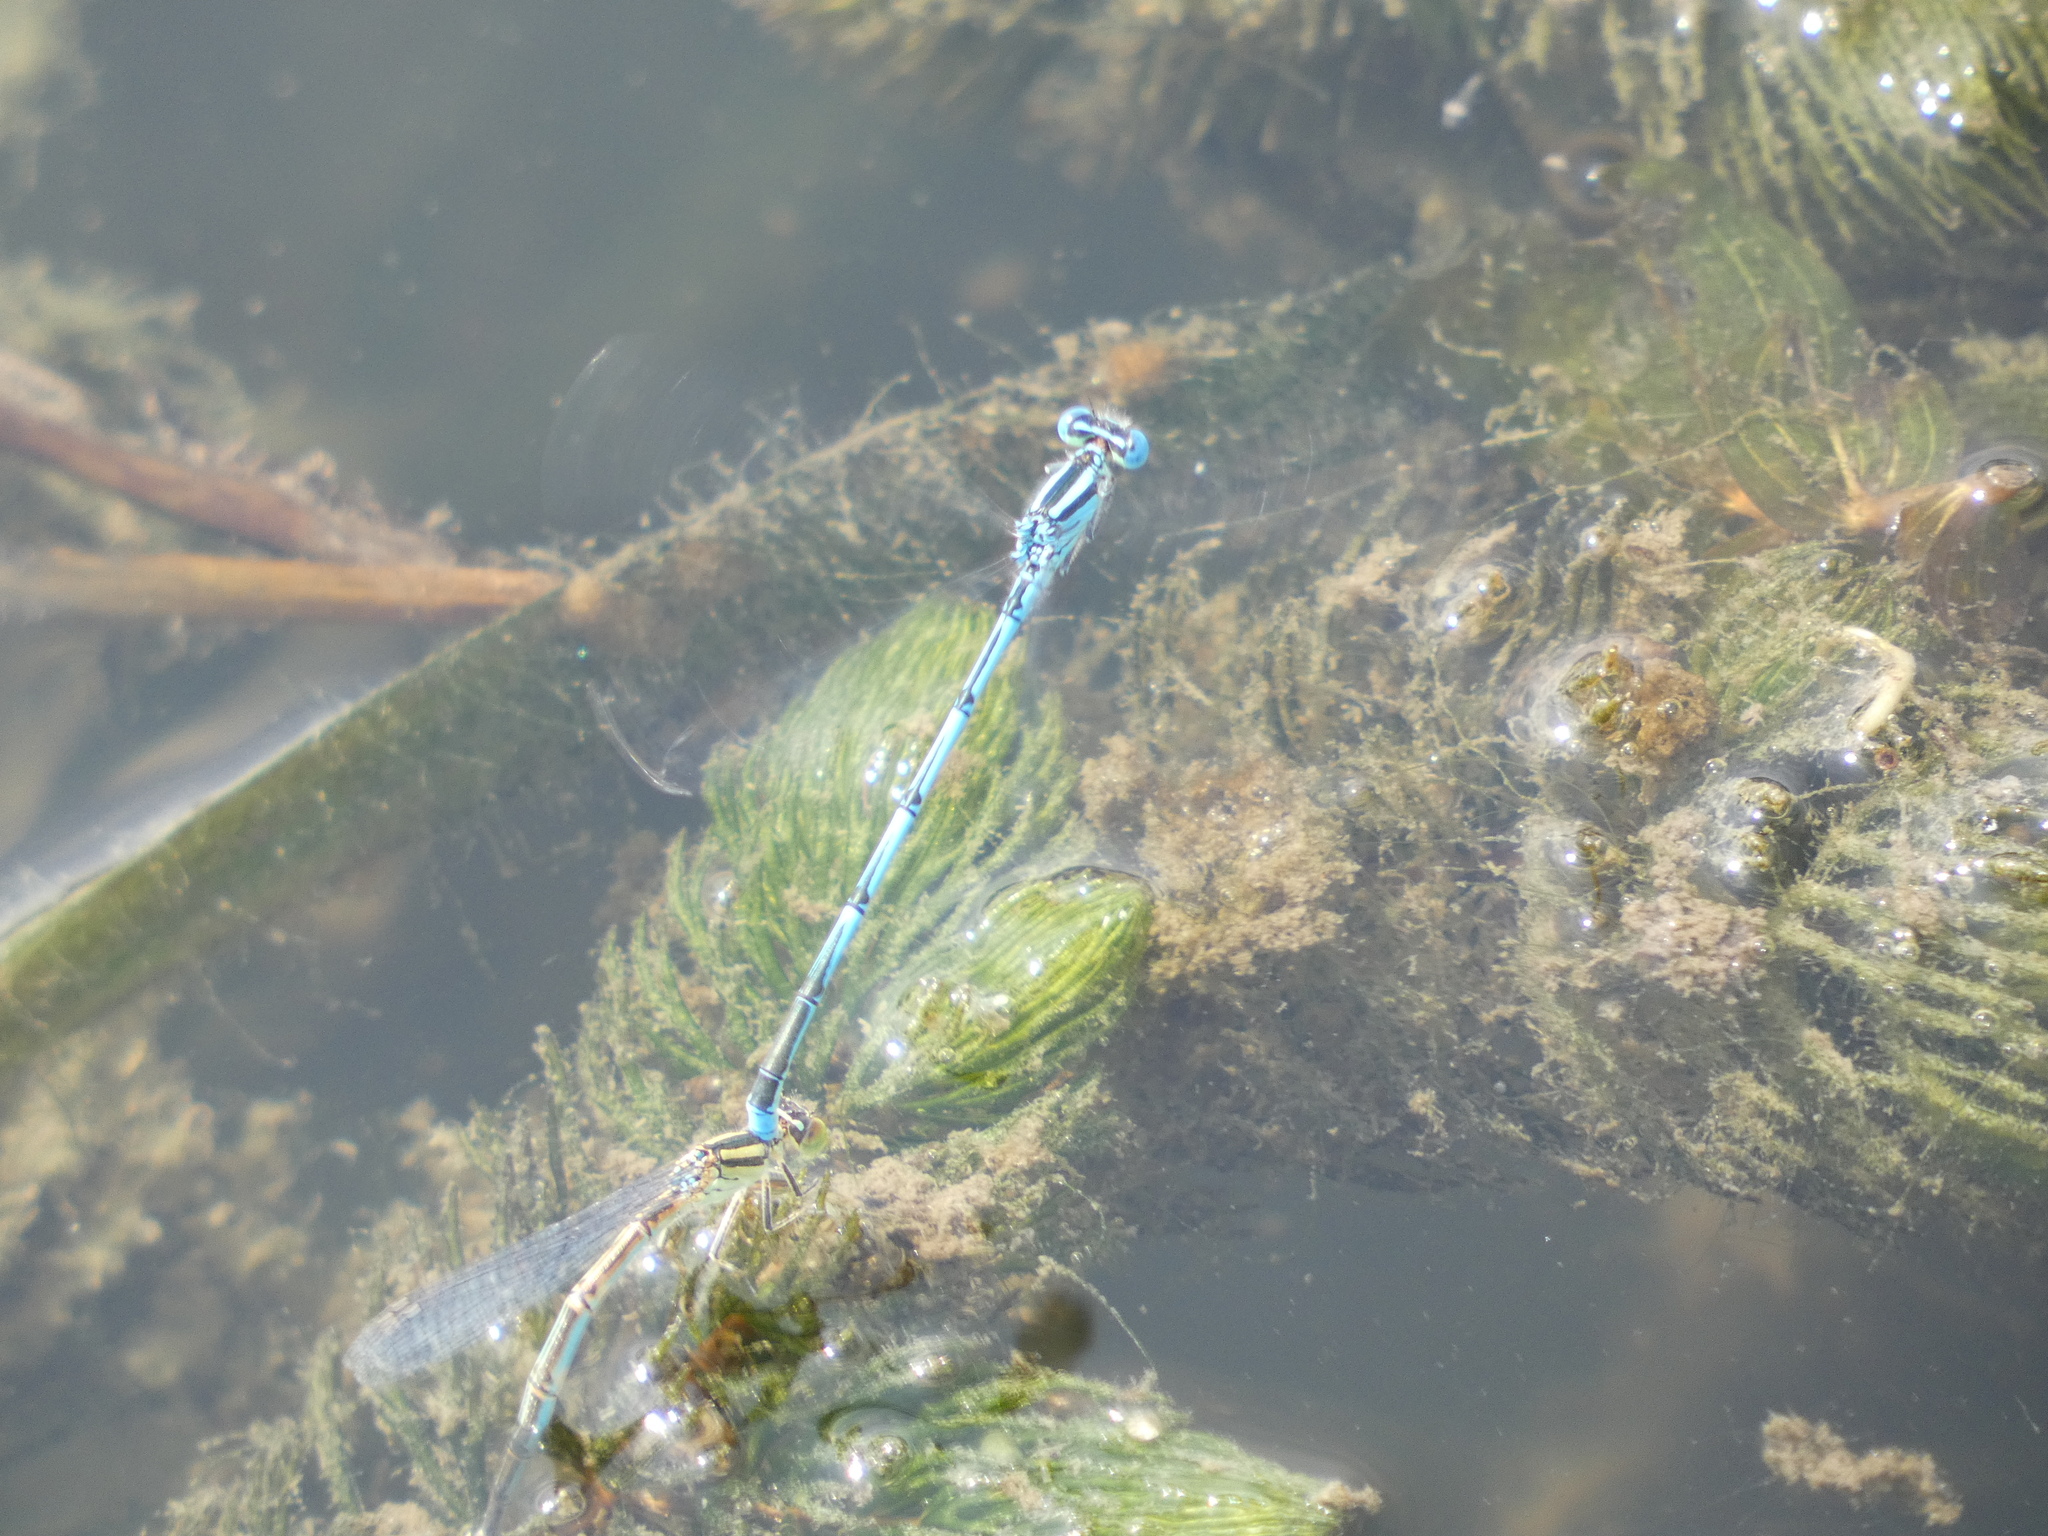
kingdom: Animalia
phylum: Arthropoda
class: Insecta
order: Odonata
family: Coenagrionidae
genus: Erythromma
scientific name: Erythromma lindenii
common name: Blue-eye
